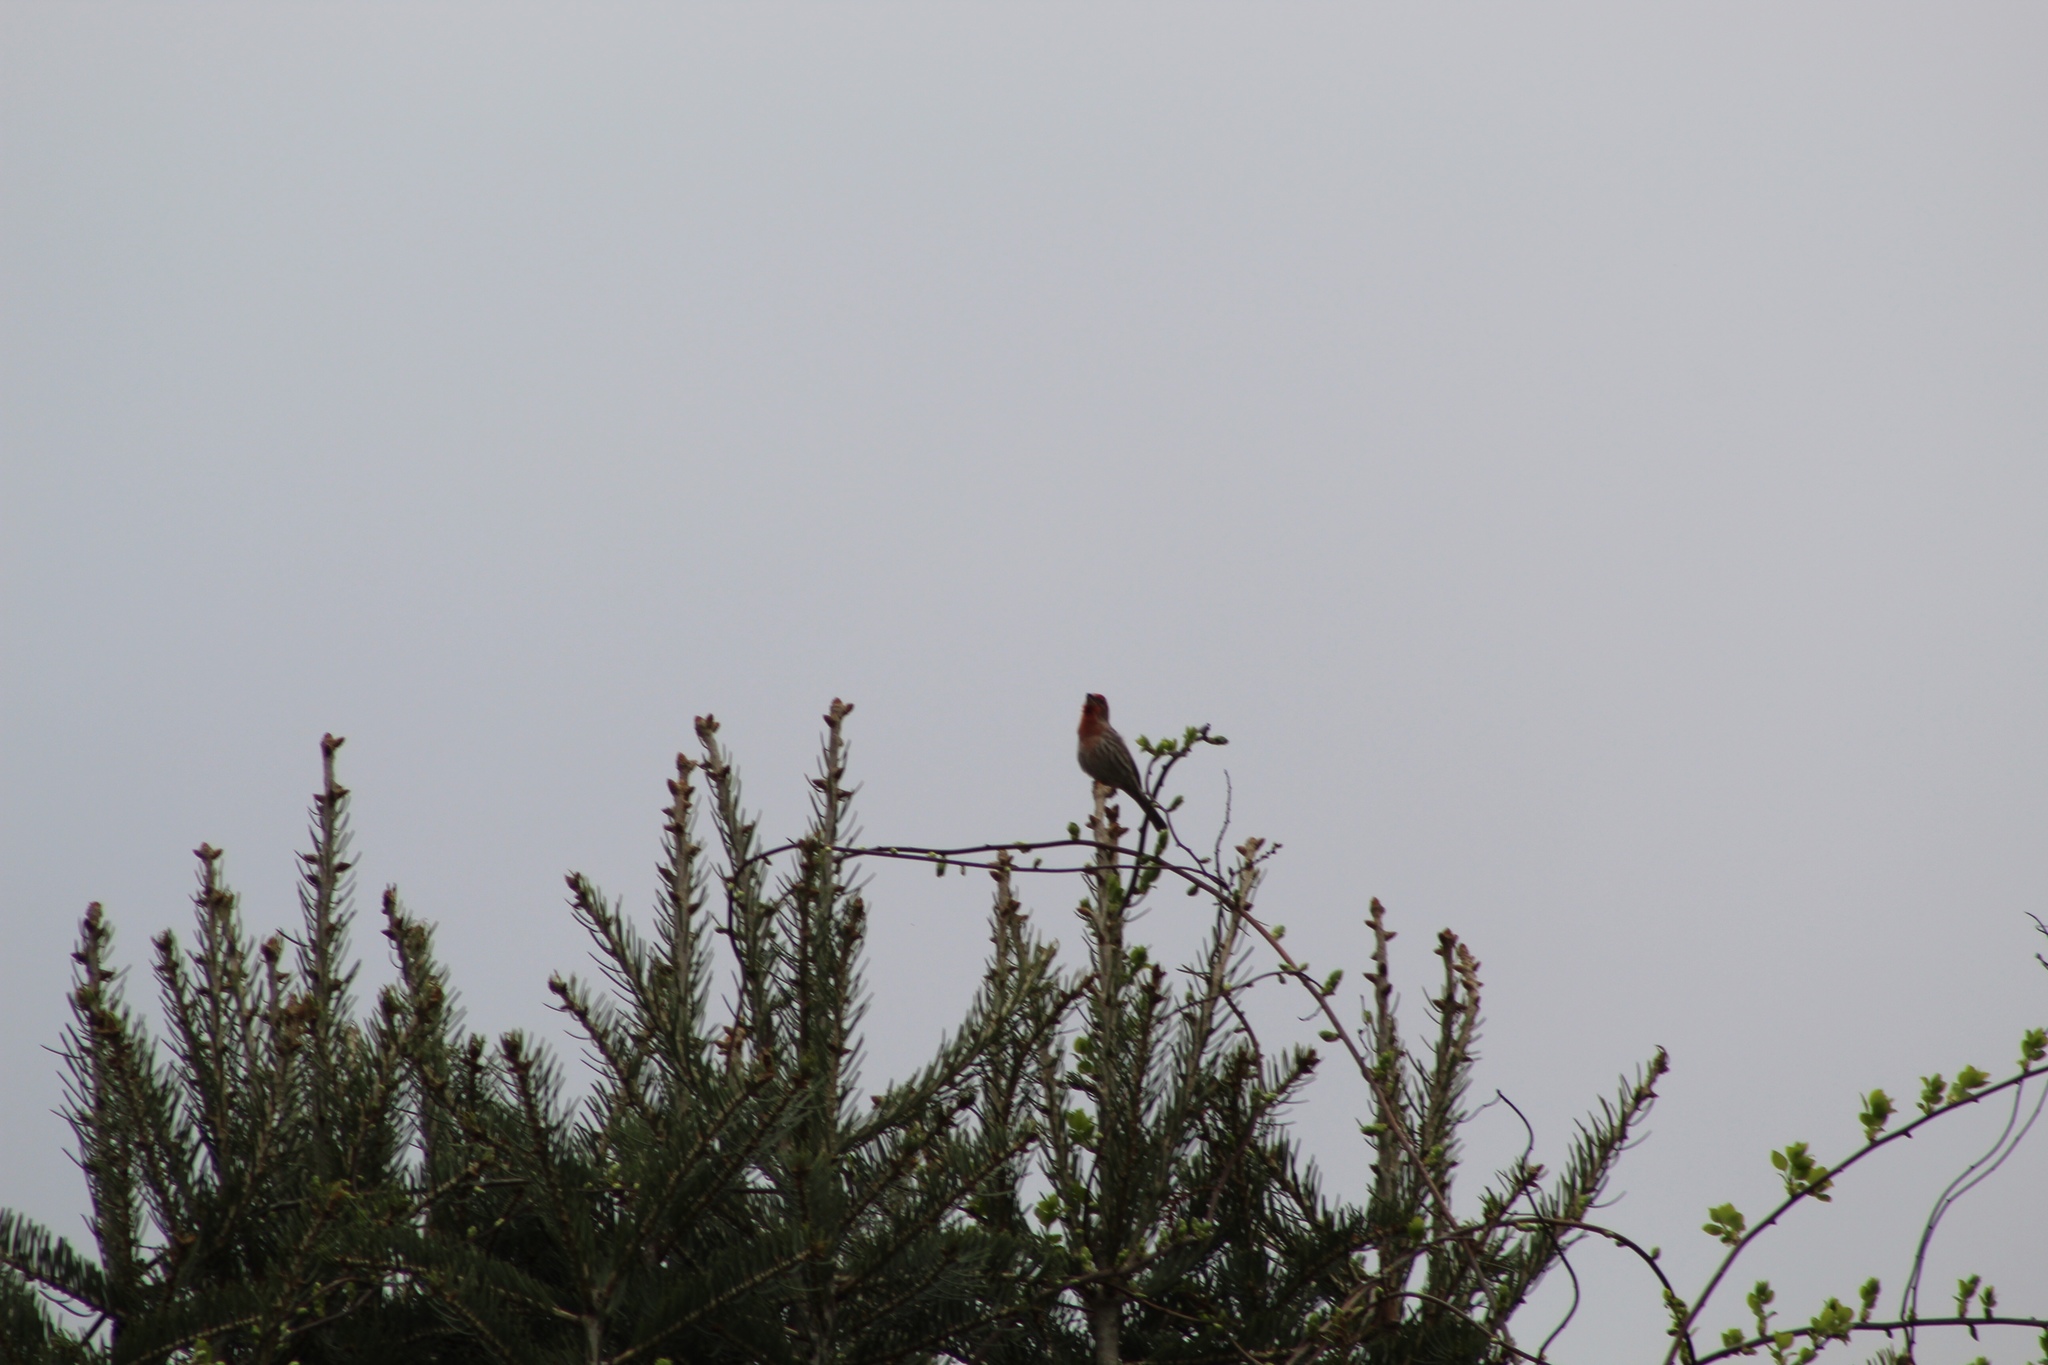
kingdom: Animalia
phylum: Chordata
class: Aves
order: Passeriformes
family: Fringillidae
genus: Haemorhous
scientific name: Haemorhous mexicanus
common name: House finch
